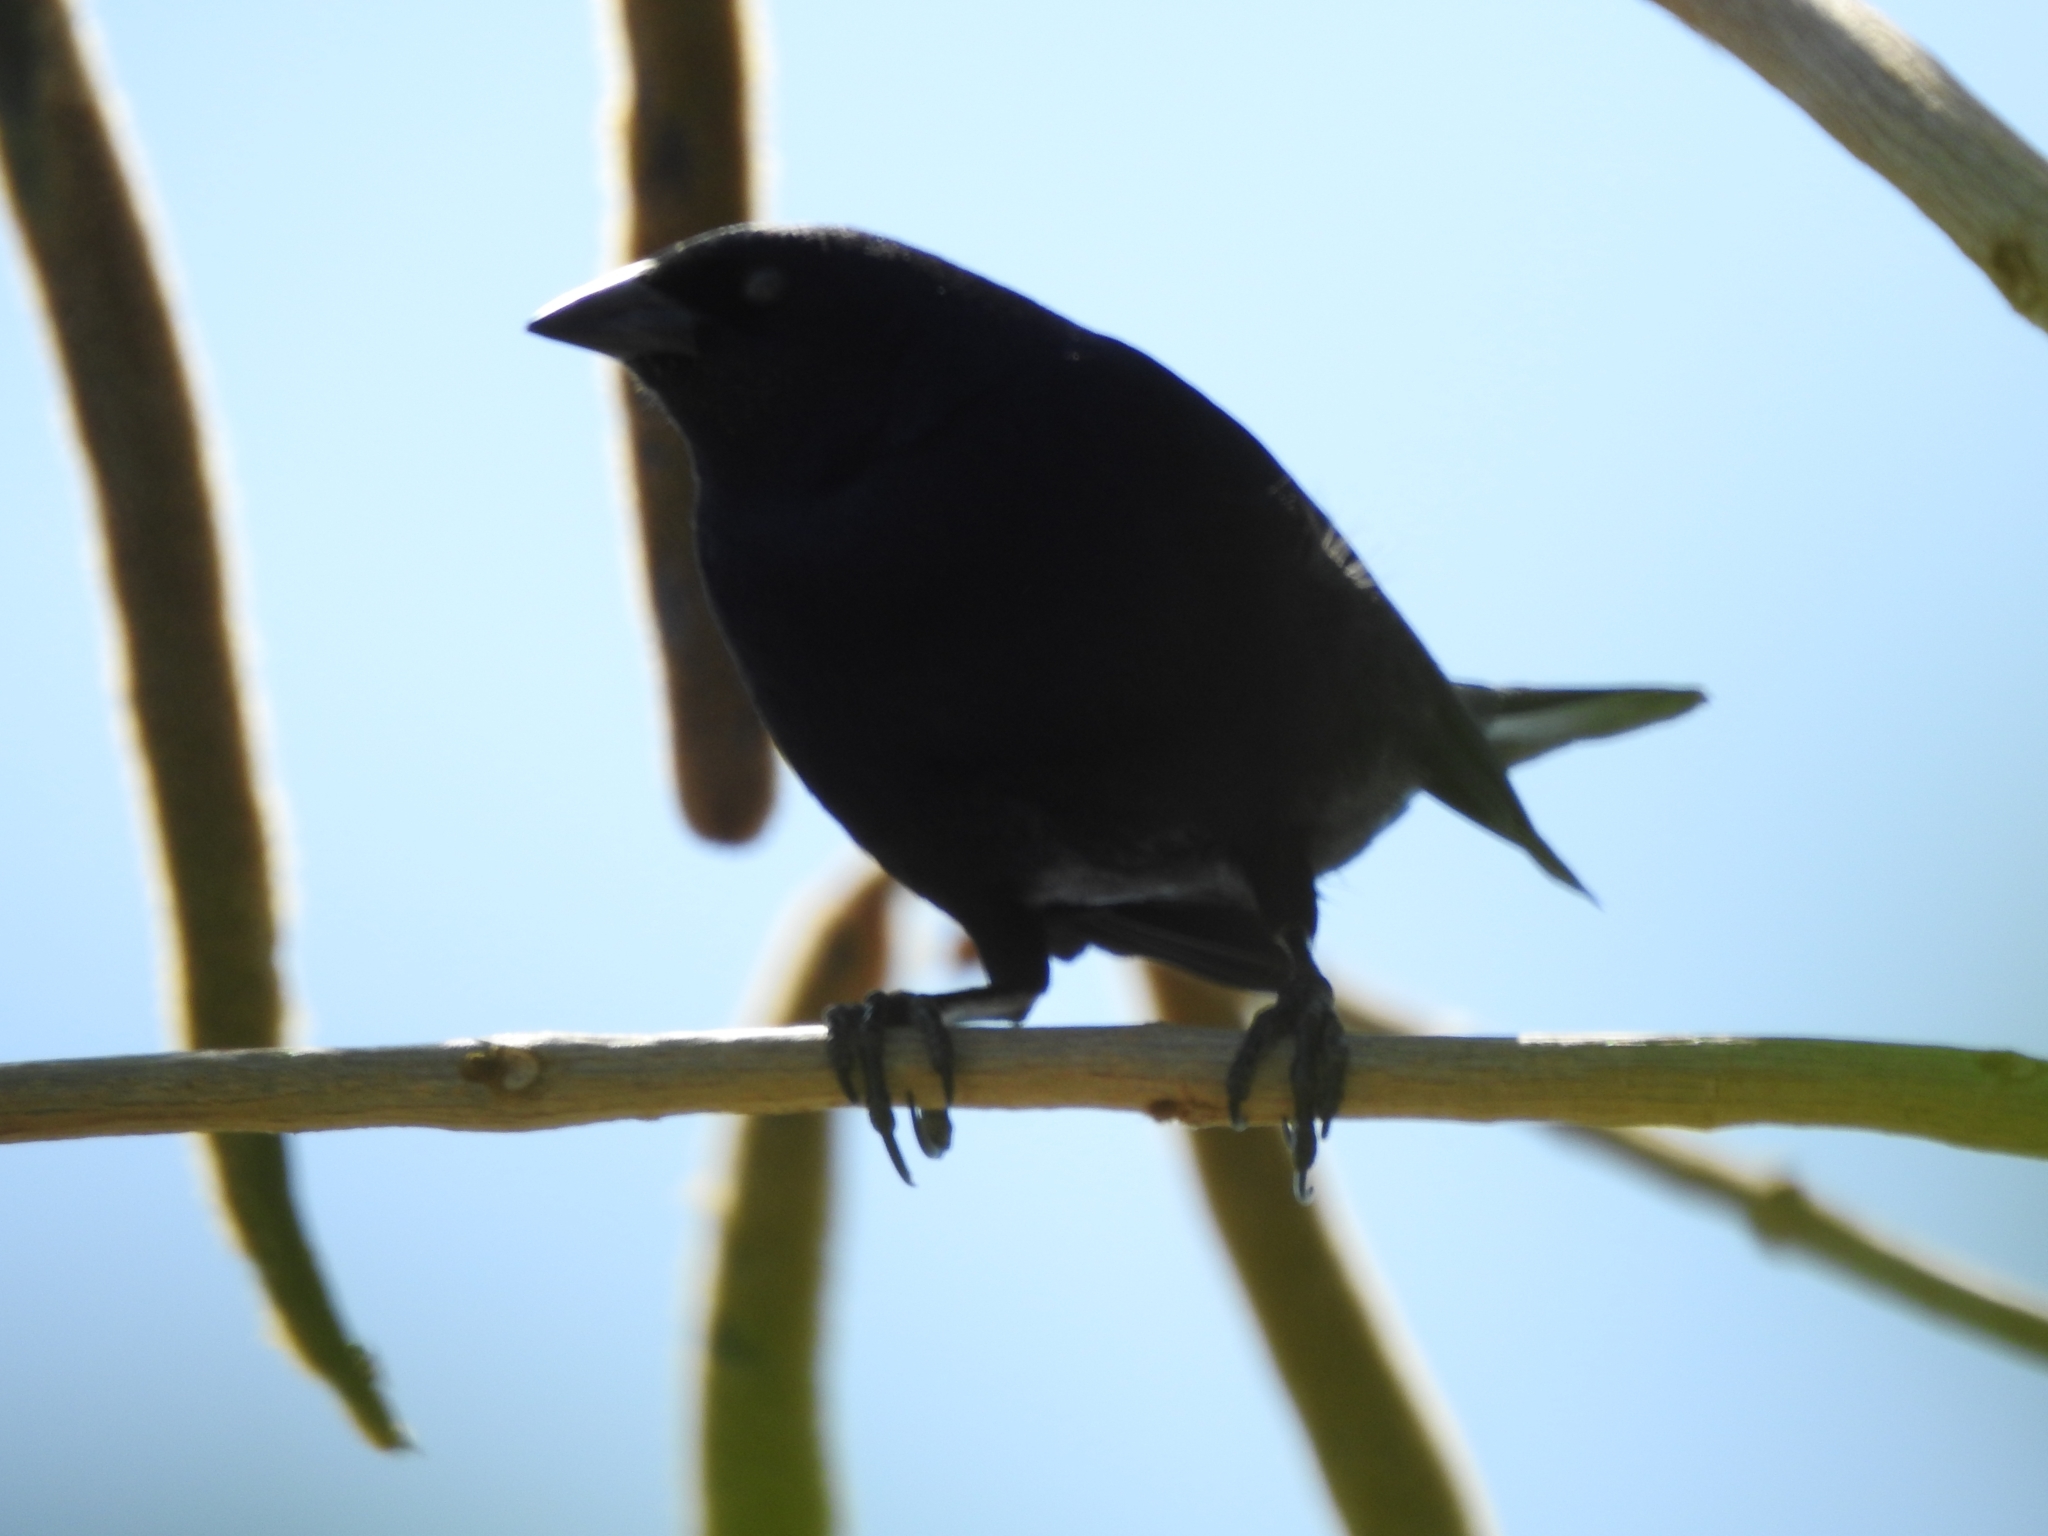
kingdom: Animalia
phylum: Chordata
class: Aves
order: Passeriformes
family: Icteridae
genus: Molothrus
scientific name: Molothrus bonariensis
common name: Shiny cowbird
